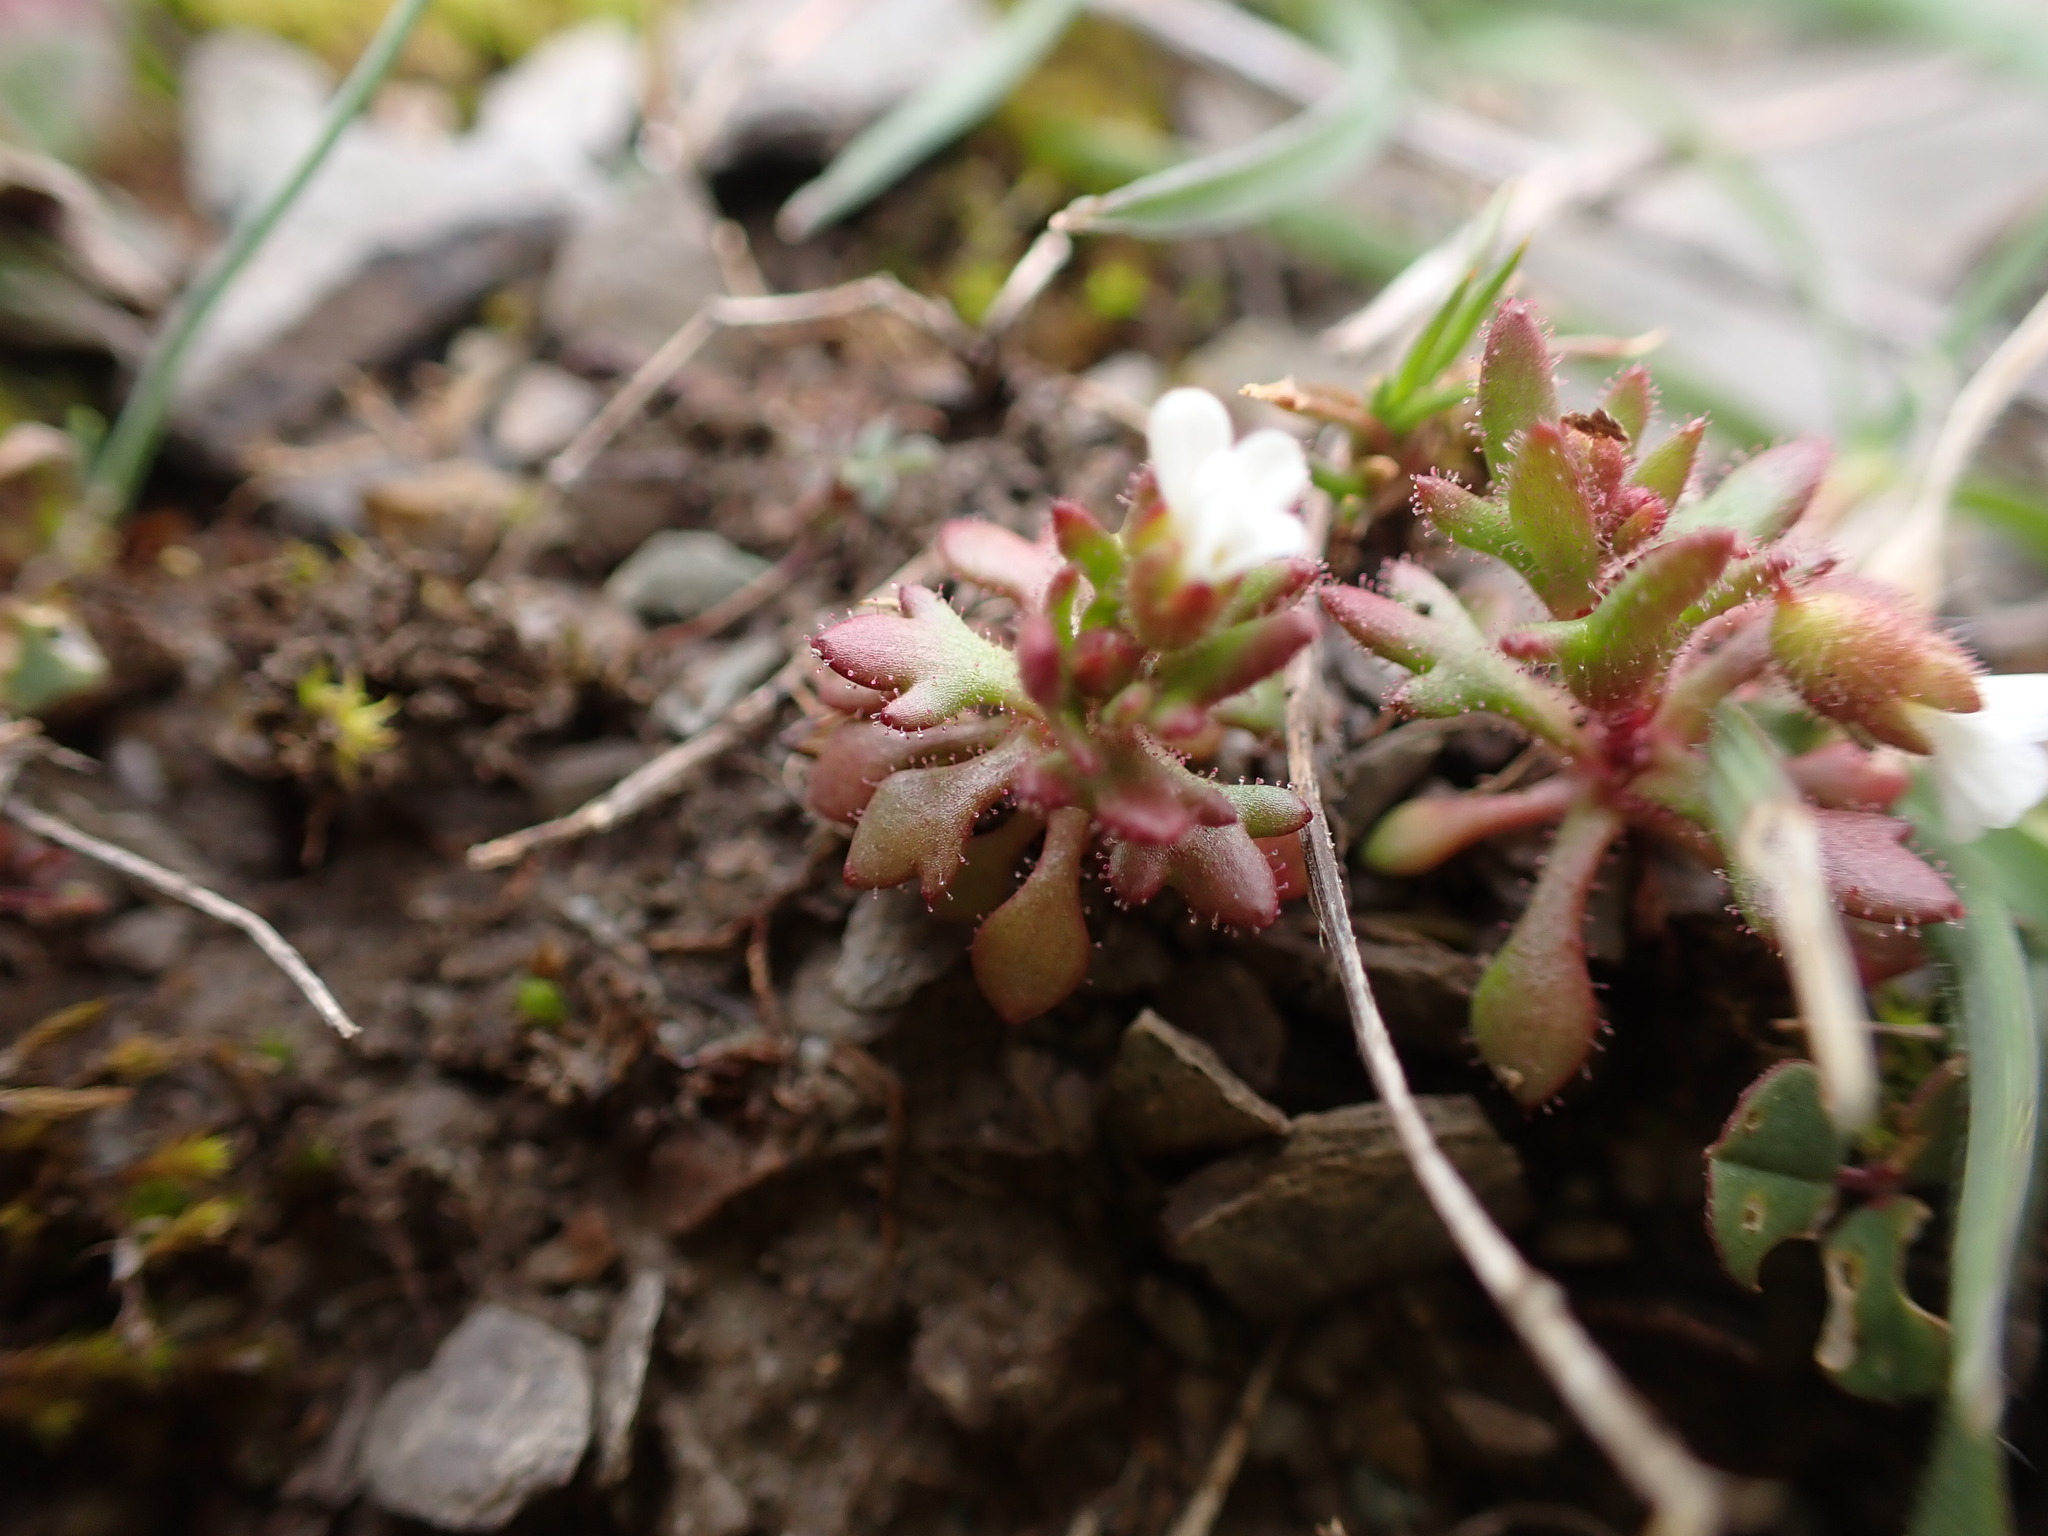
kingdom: Plantae
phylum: Tracheophyta
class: Magnoliopsida
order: Saxifragales
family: Saxifragaceae
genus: Saxifraga
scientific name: Saxifraga tridactylites
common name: Rue-leaved saxifrage
